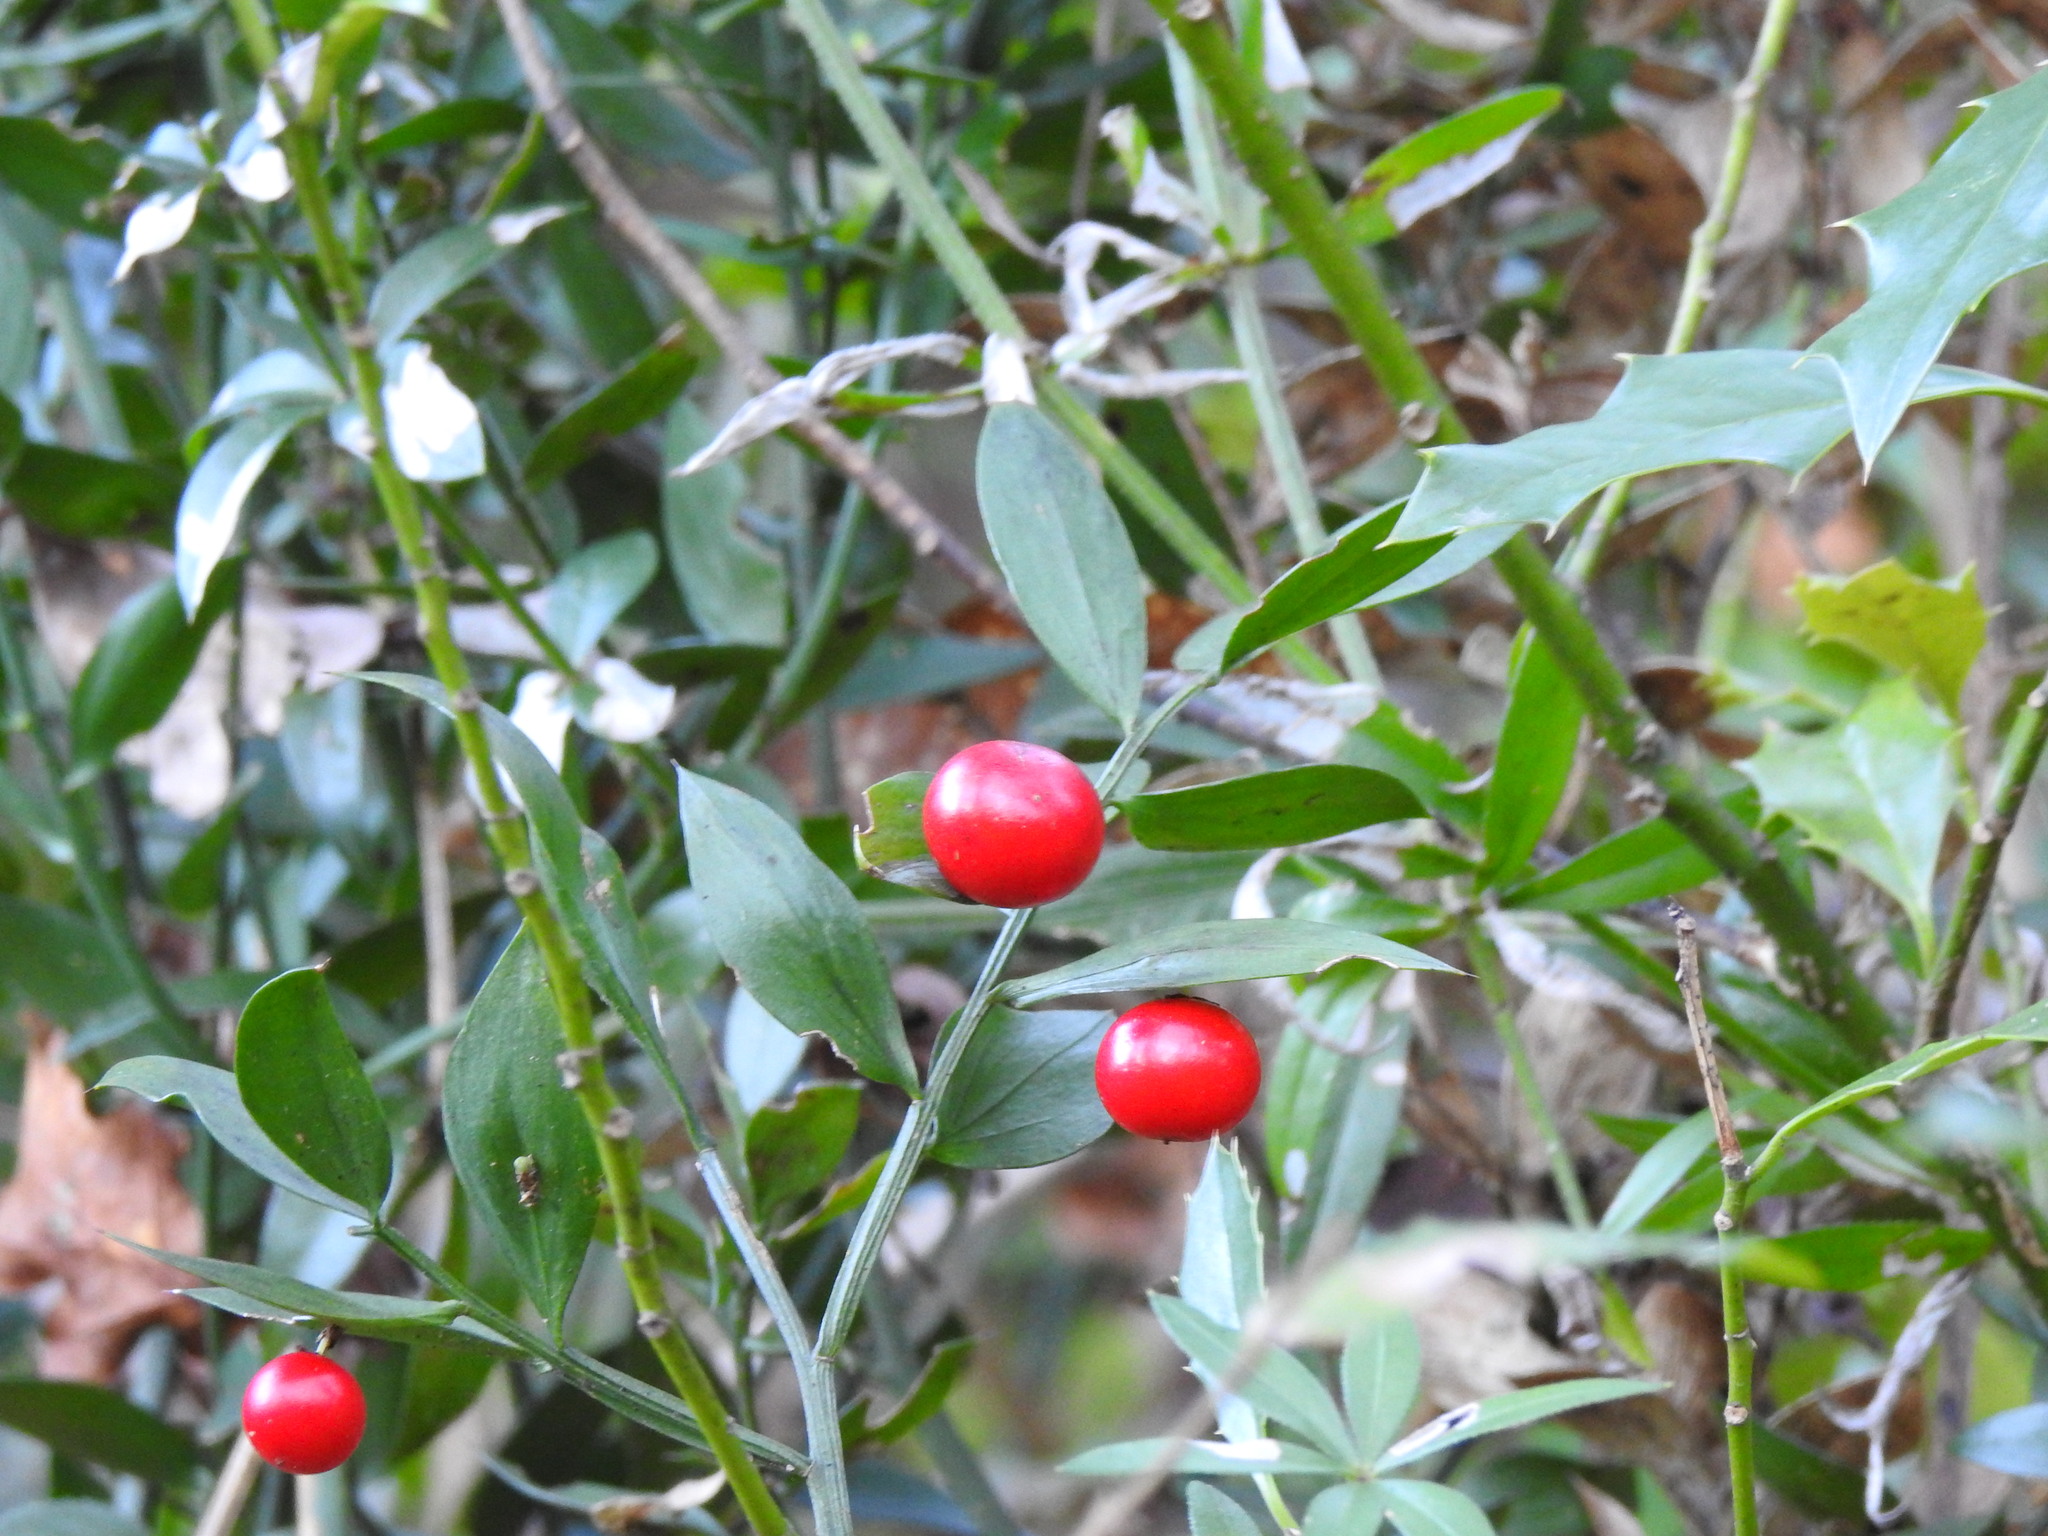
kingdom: Plantae
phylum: Tracheophyta
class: Liliopsida
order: Asparagales
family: Asparagaceae
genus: Ruscus
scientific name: Ruscus aculeatus
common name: Butcher's-broom
